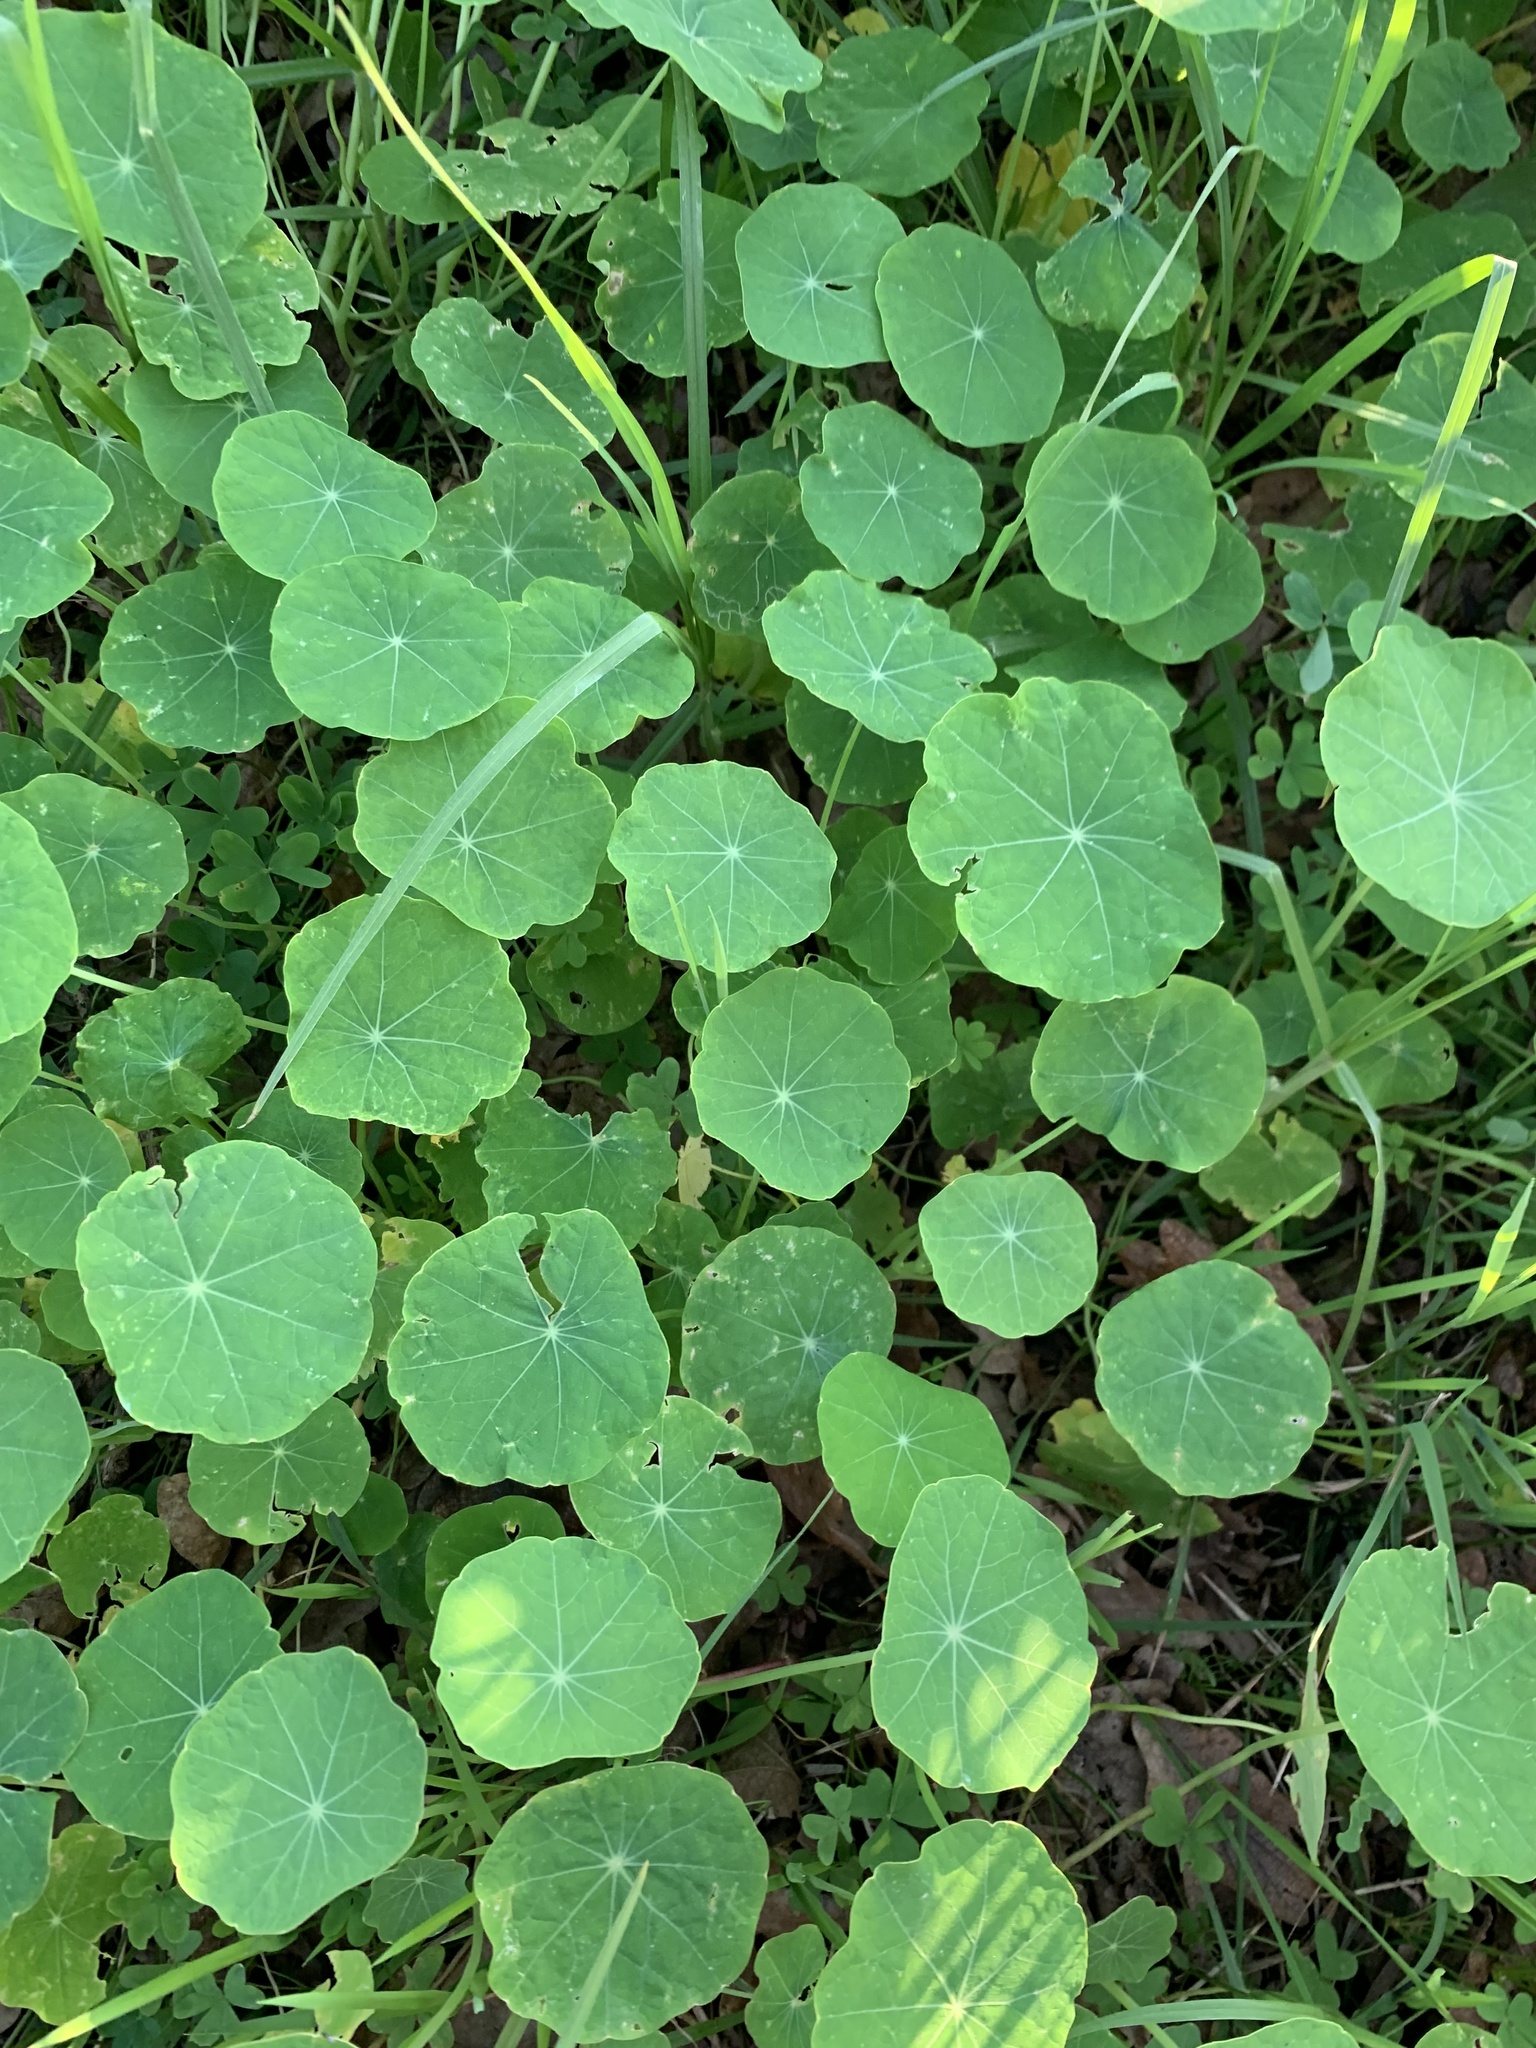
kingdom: Plantae
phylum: Tracheophyta
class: Magnoliopsida
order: Brassicales
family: Tropaeolaceae
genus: Tropaeolum
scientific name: Tropaeolum majus
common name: Nasturtium
